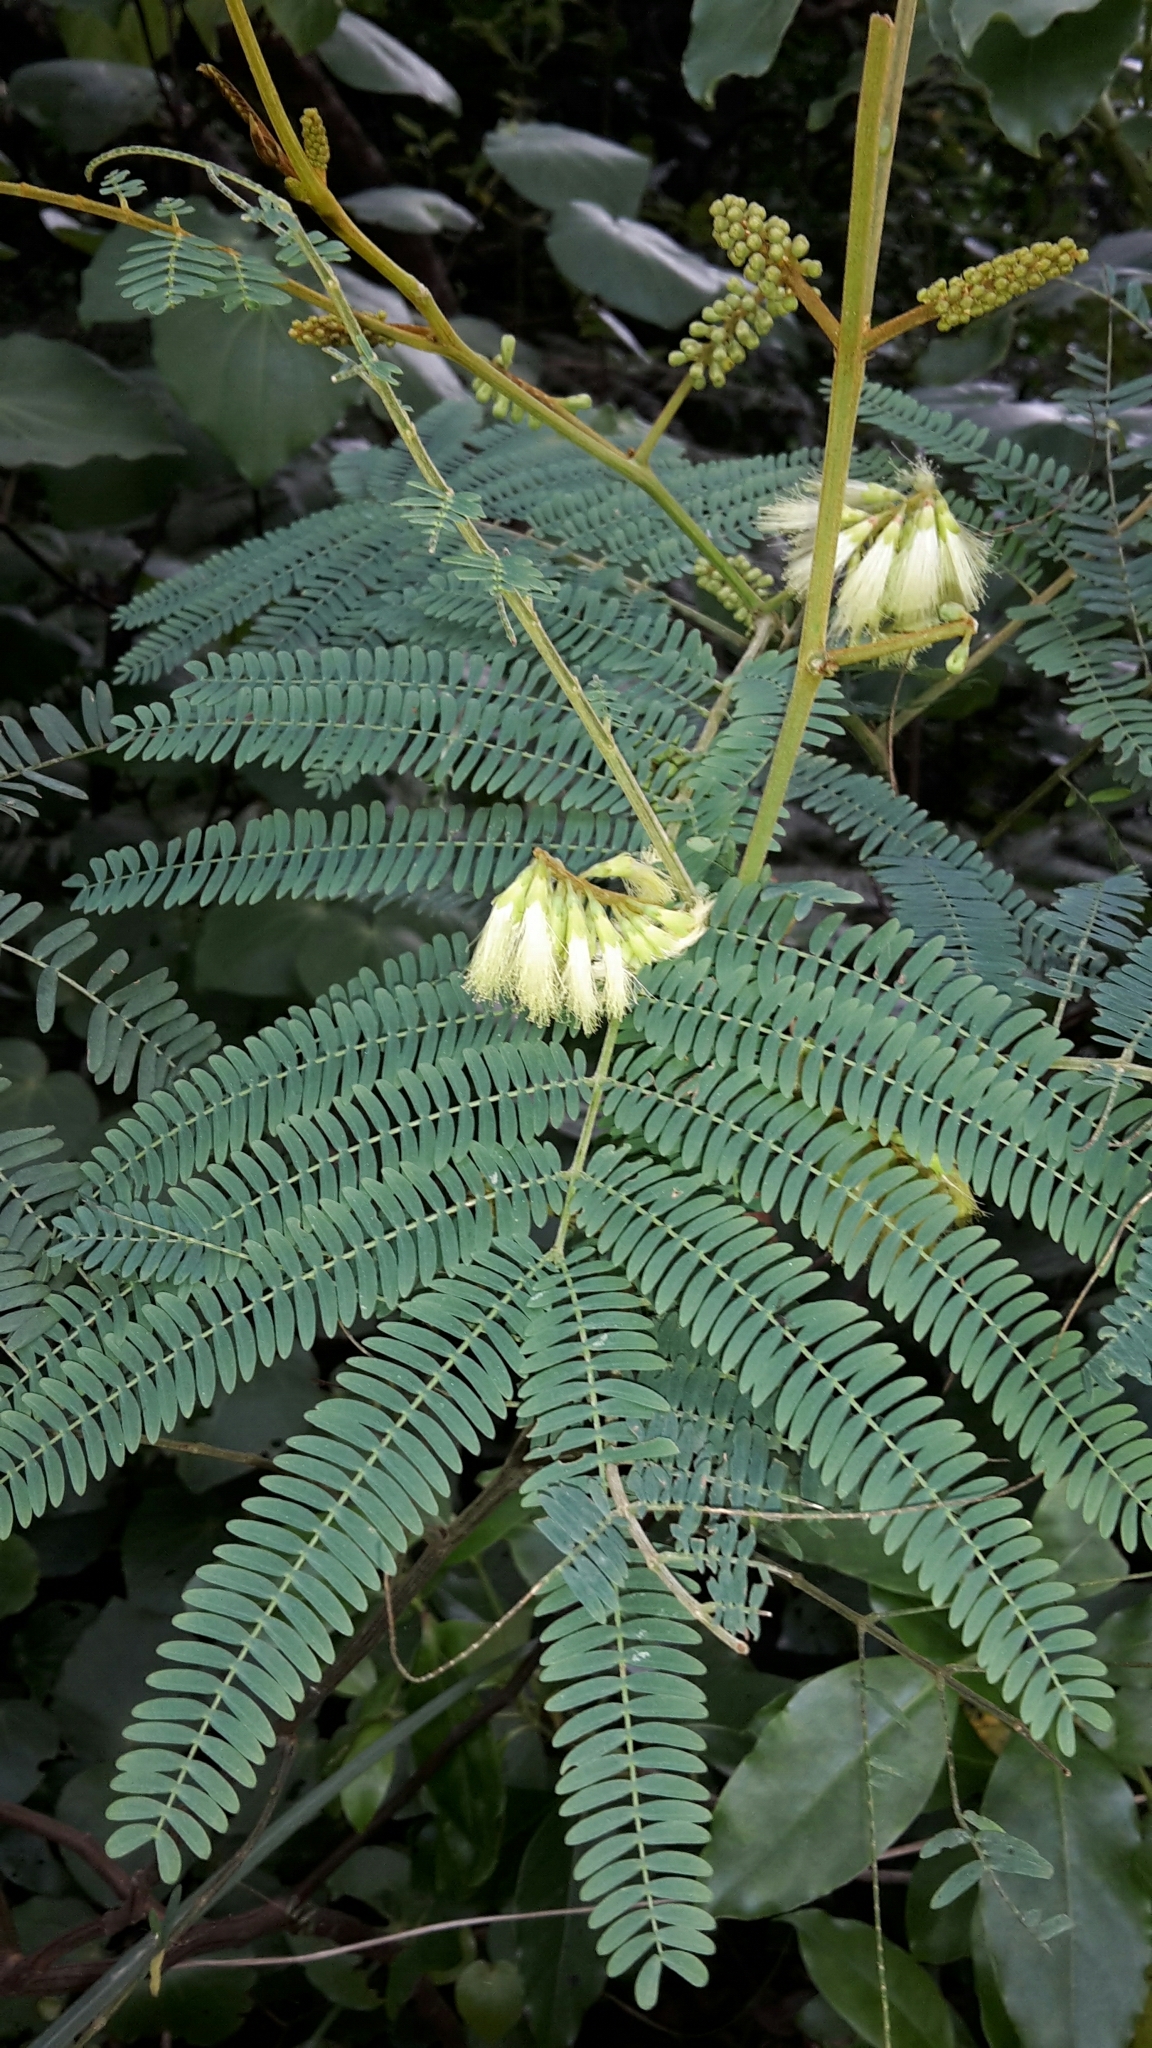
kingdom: Plantae
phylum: Tracheophyta
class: Magnoliopsida
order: Fabales
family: Fabaceae
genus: Paraserianthes
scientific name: Paraserianthes lophantha
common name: Plume albizia
